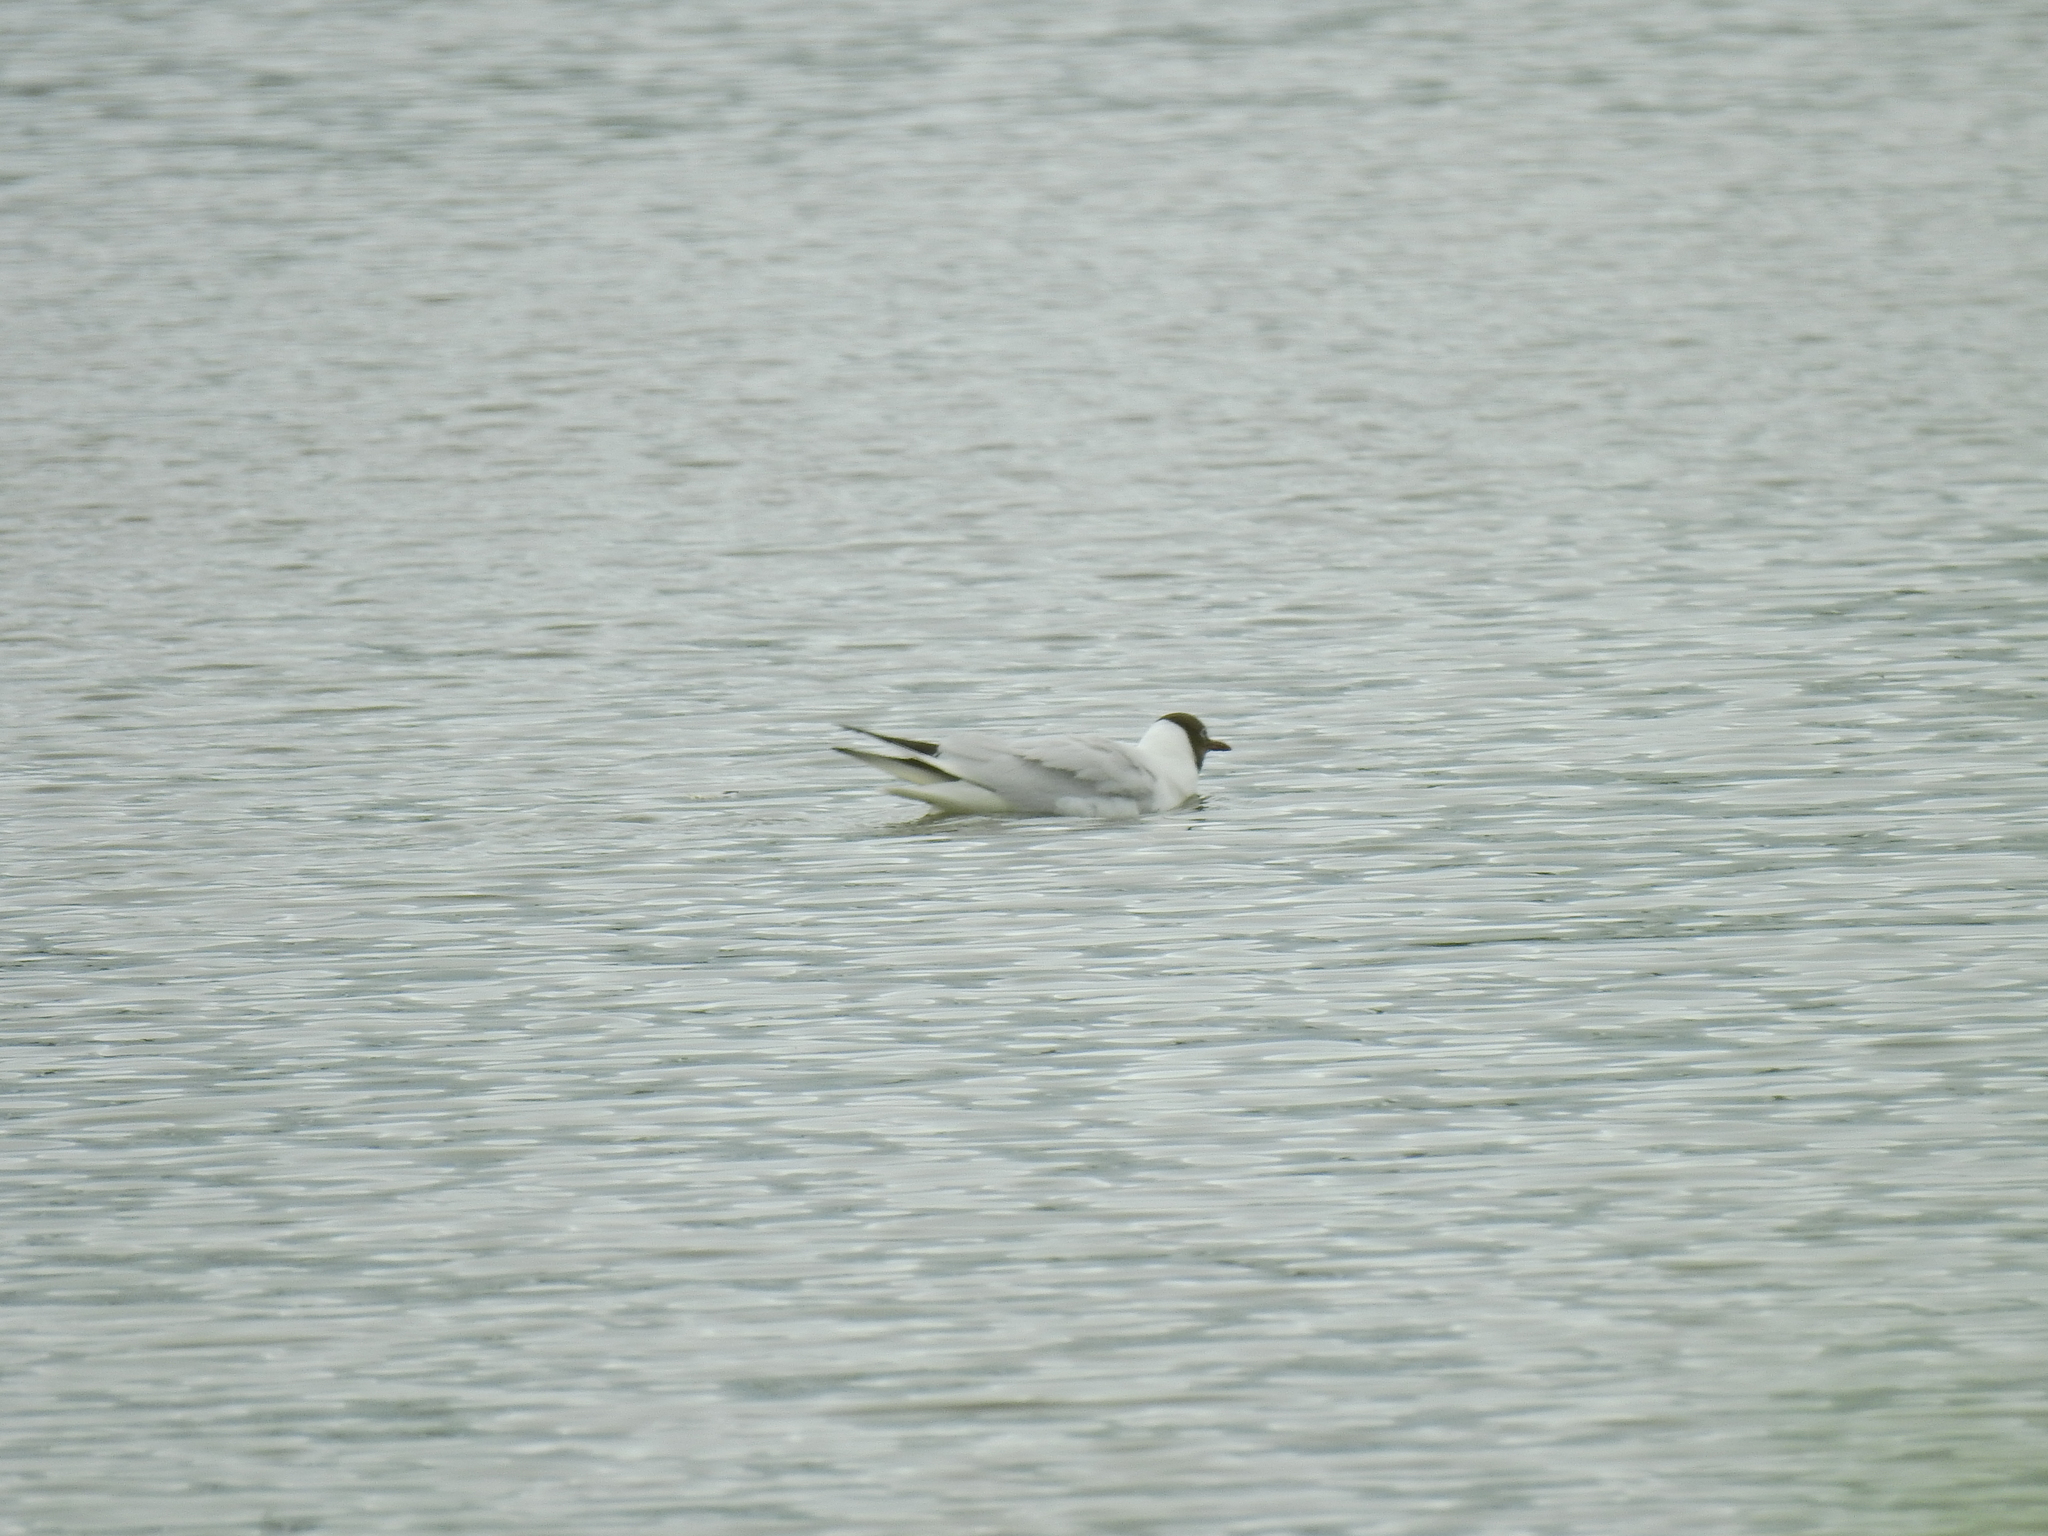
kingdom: Animalia
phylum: Chordata
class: Aves
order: Charadriiformes
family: Laridae
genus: Chroicocephalus
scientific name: Chroicocephalus ridibundus
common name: Black-headed gull
